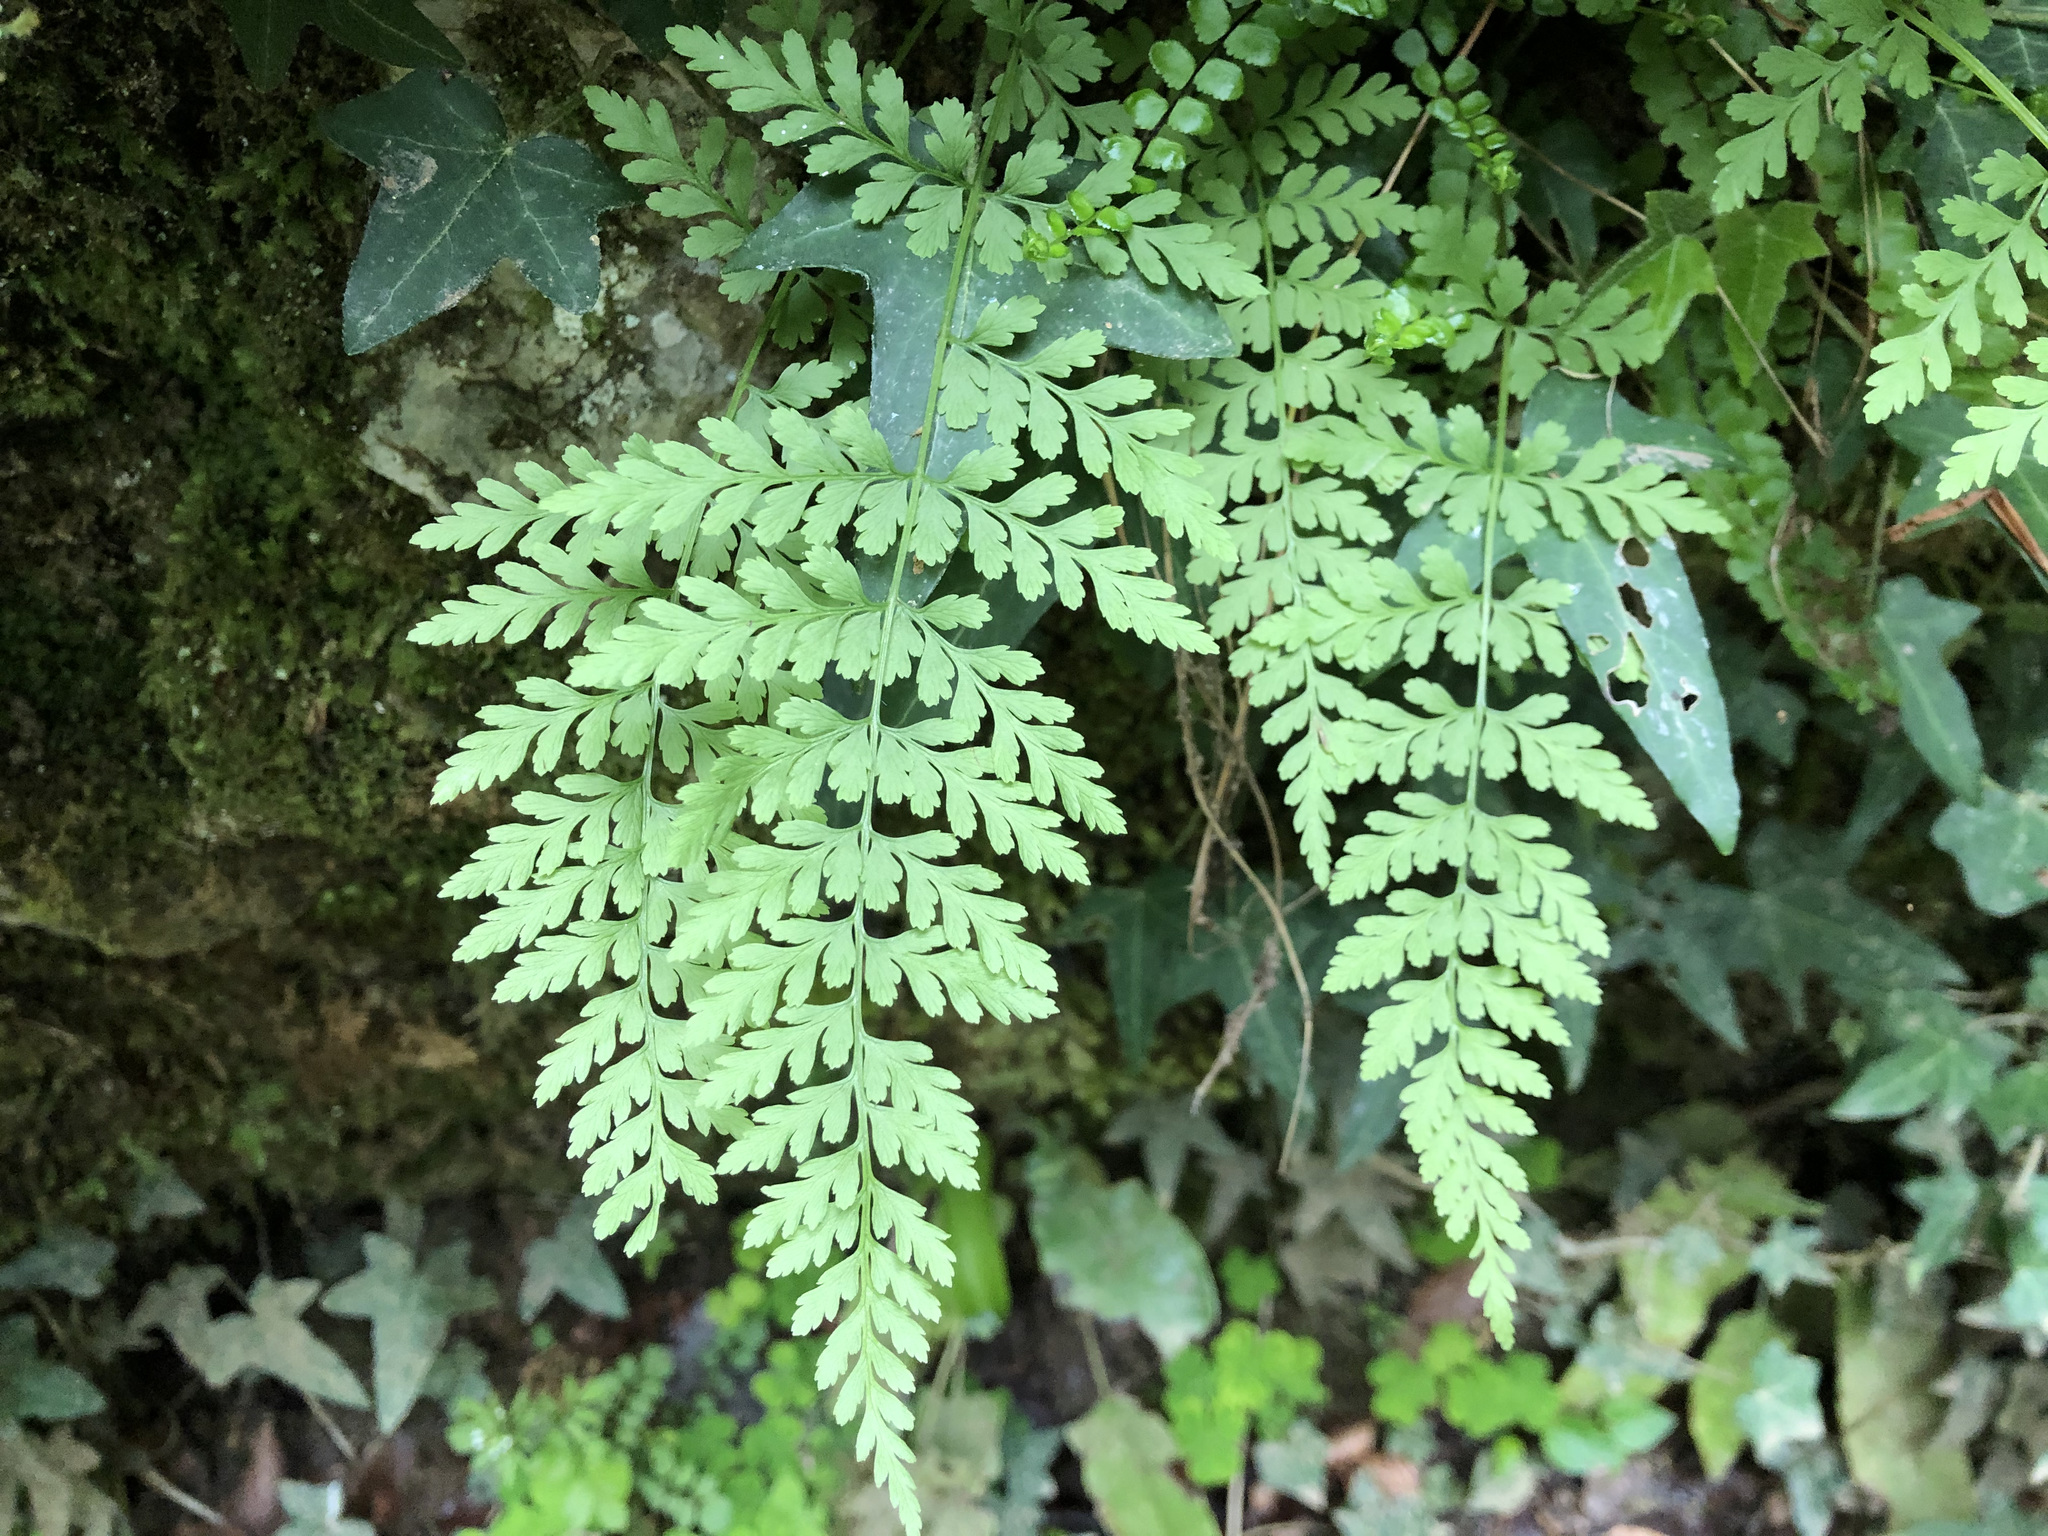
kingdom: Plantae
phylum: Tracheophyta
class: Polypodiopsida
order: Polypodiales
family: Cystopteridaceae
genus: Cystopteris
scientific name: Cystopteris fragilis
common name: Brittle bladder fern
